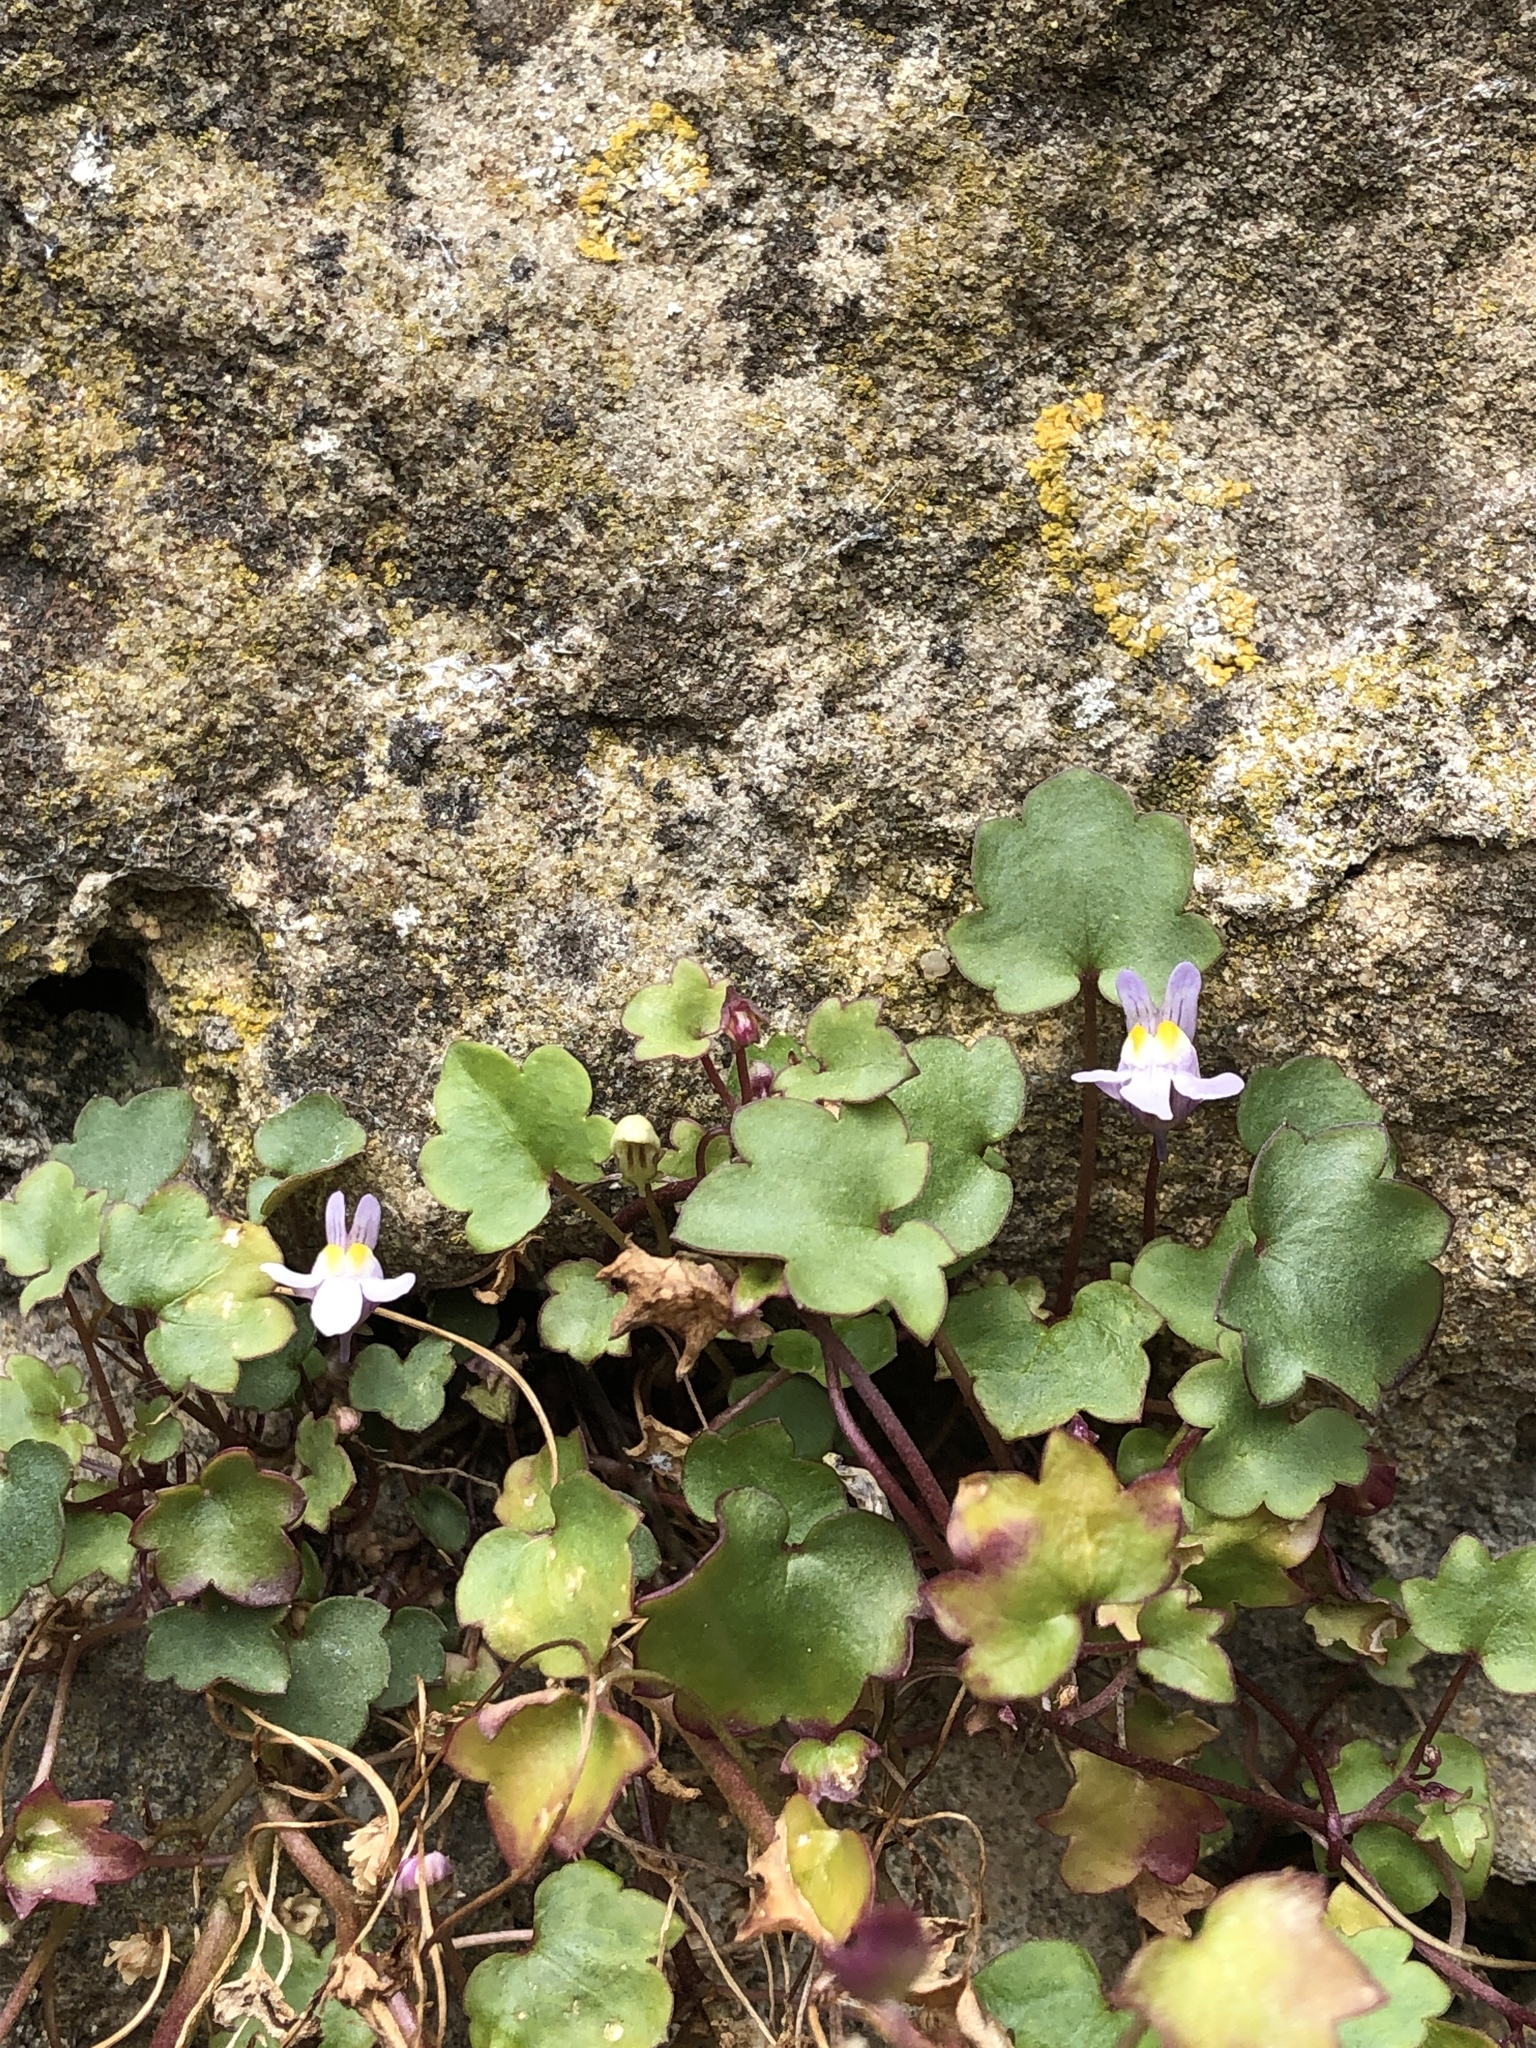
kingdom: Plantae
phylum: Tracheophyta
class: Magnoliopsida
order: Lamiales
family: Plantaginaceae
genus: Cymbalaria
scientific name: Cymbalaria muralis
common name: Ivy-leaved toadflax
